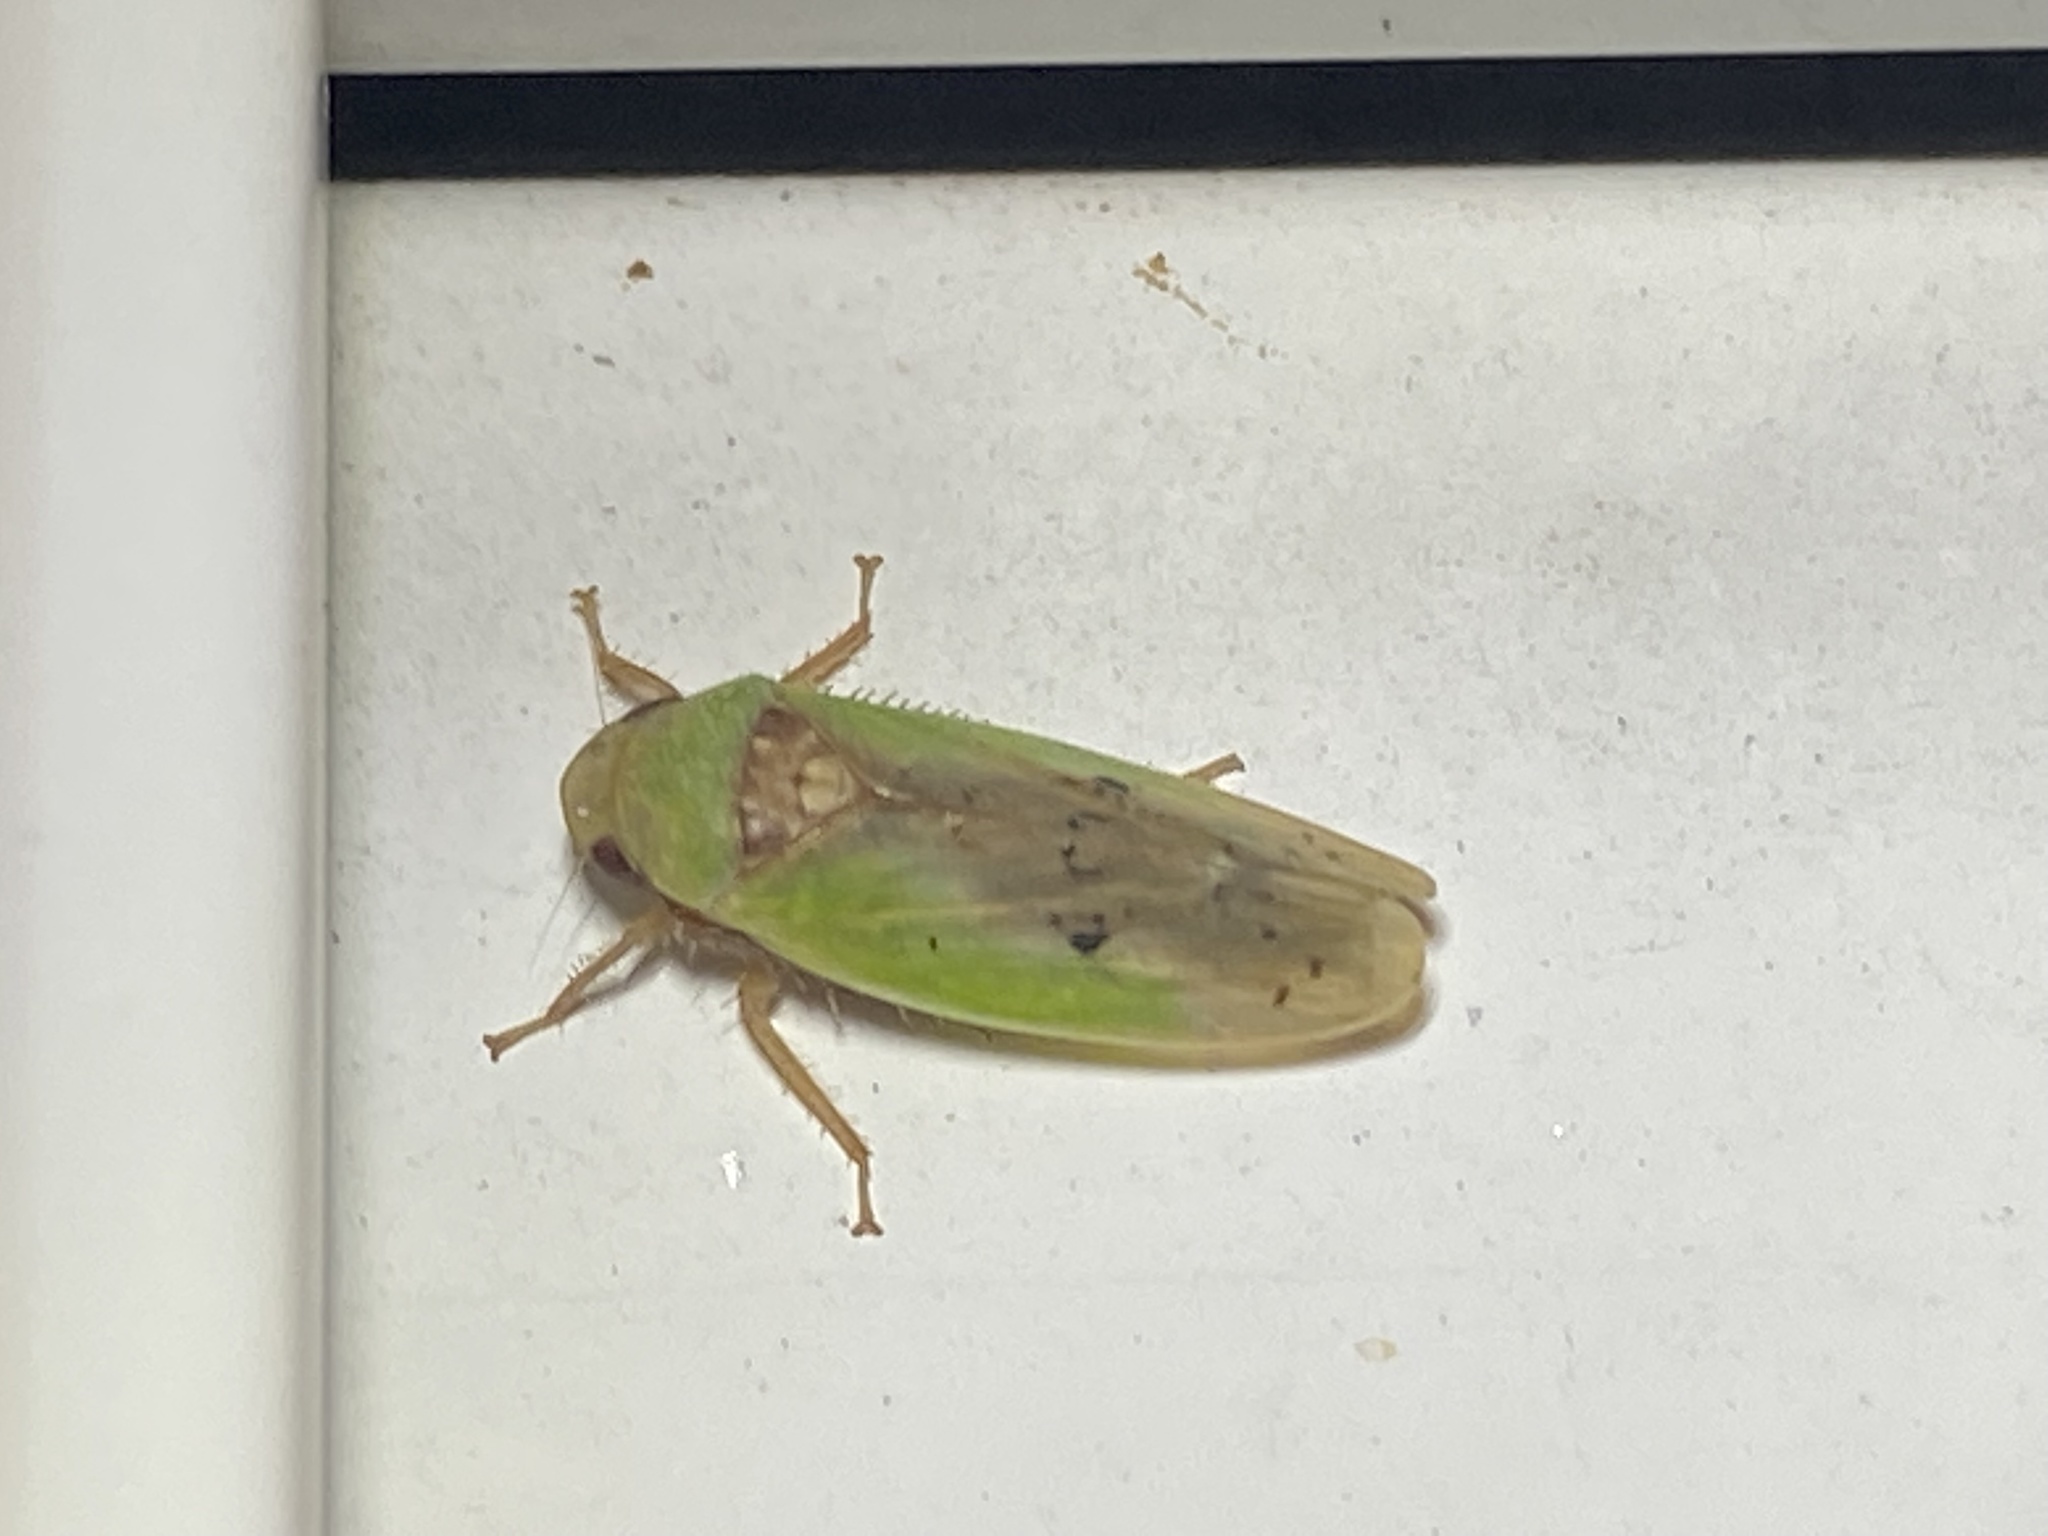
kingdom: Animalia
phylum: Arthropoda
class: Insecta
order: Hemiptera
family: Cicadellidae
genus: Ponana
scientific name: Ponana pectoralis
